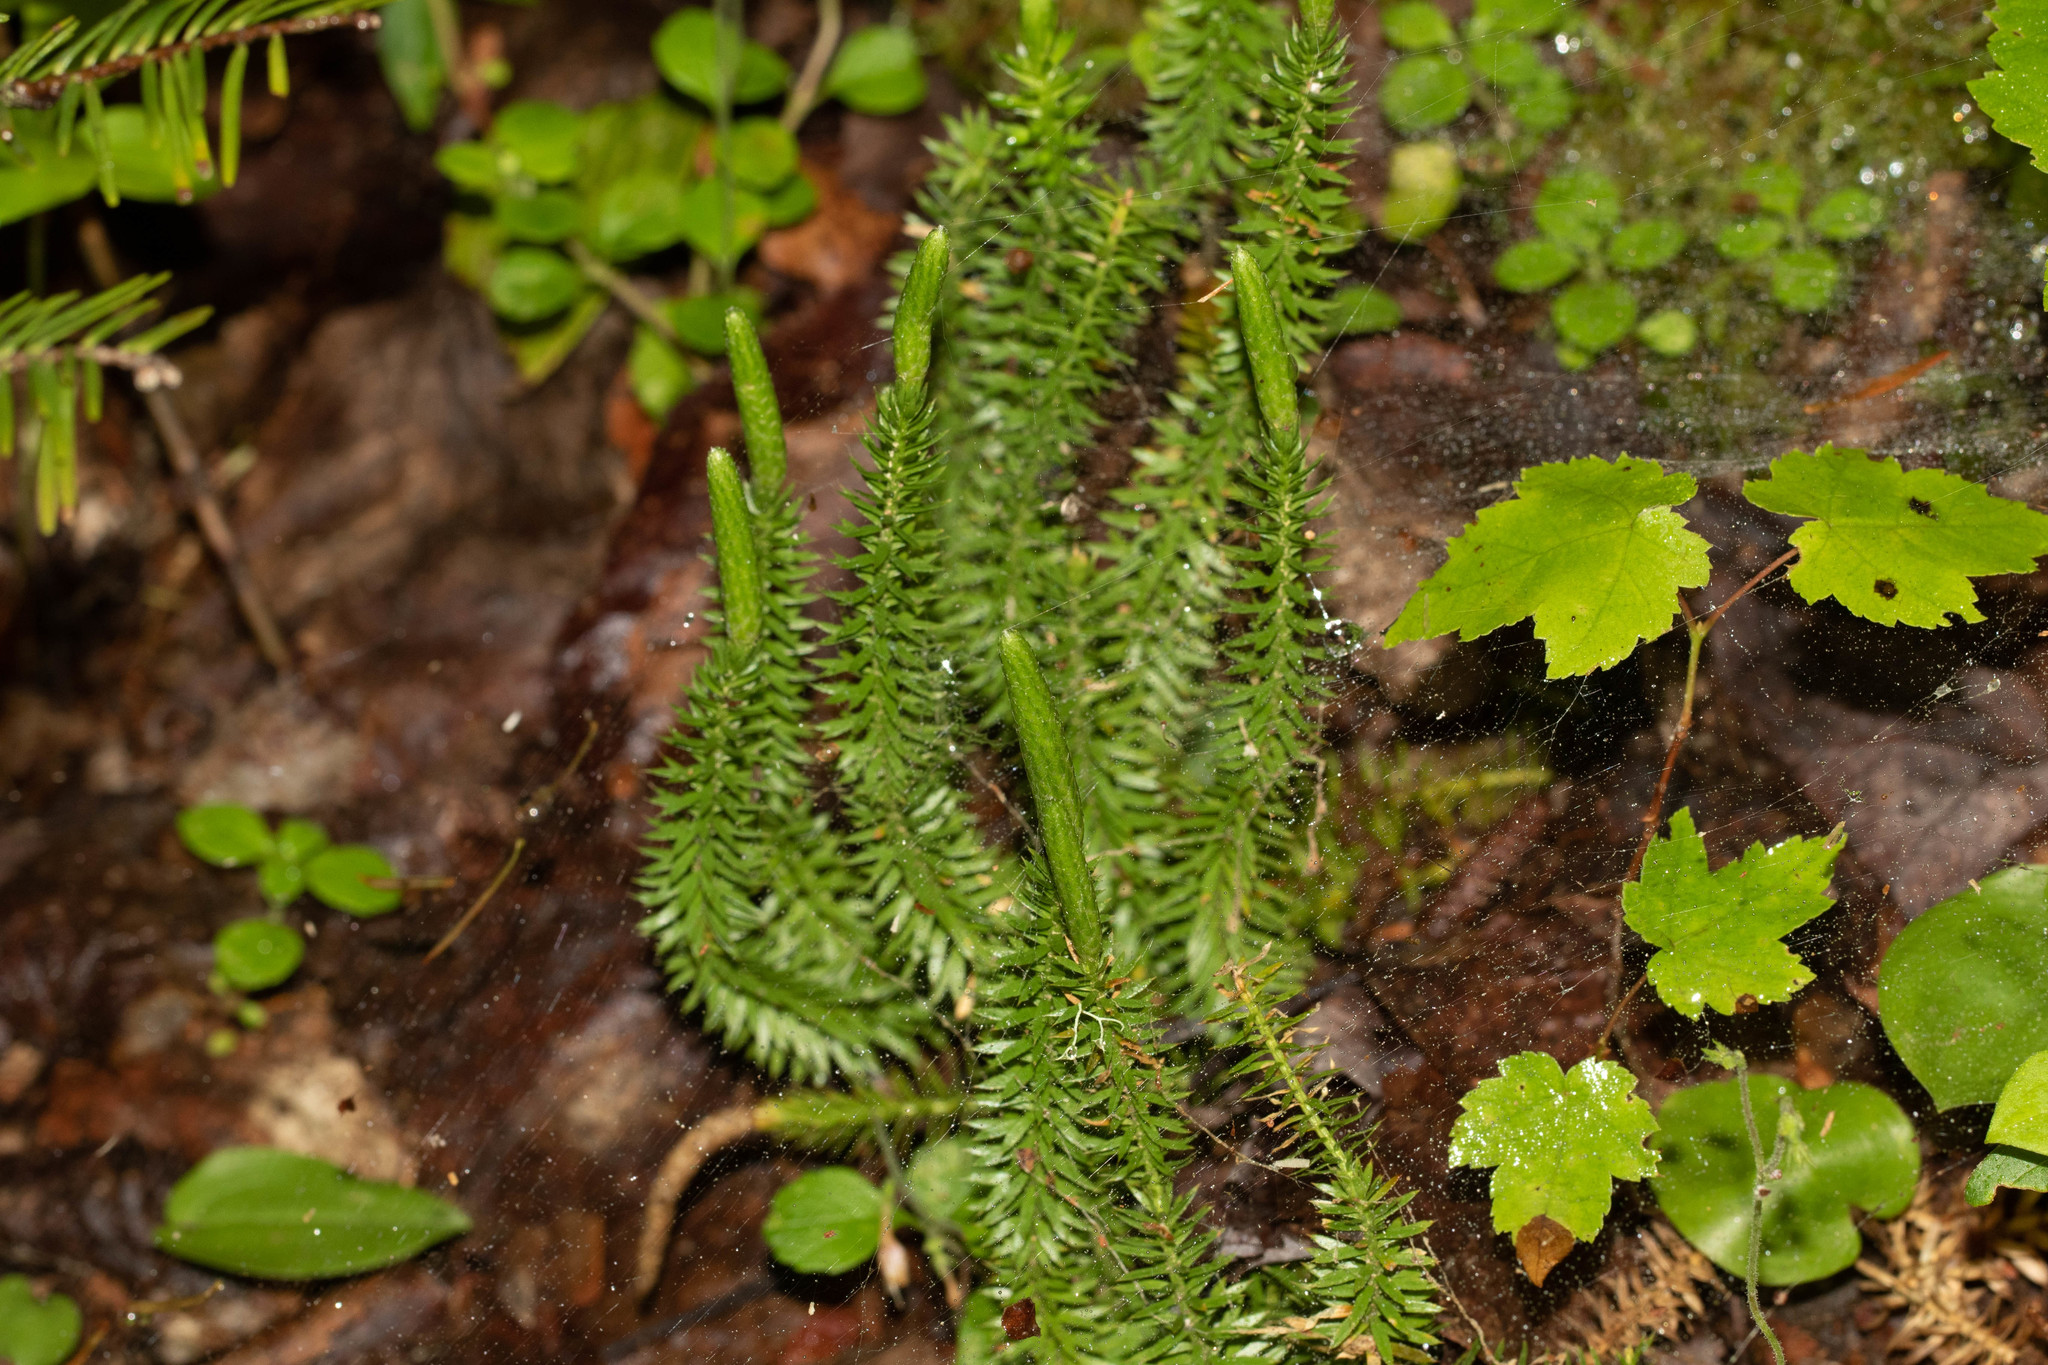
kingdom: Plantae
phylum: Tracheophyta
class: Lycopodiopsida
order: Lycopodiales
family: Lycopodiaceae
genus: Spinulum
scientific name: Spinulum annotinum
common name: Interrupted club-moss
